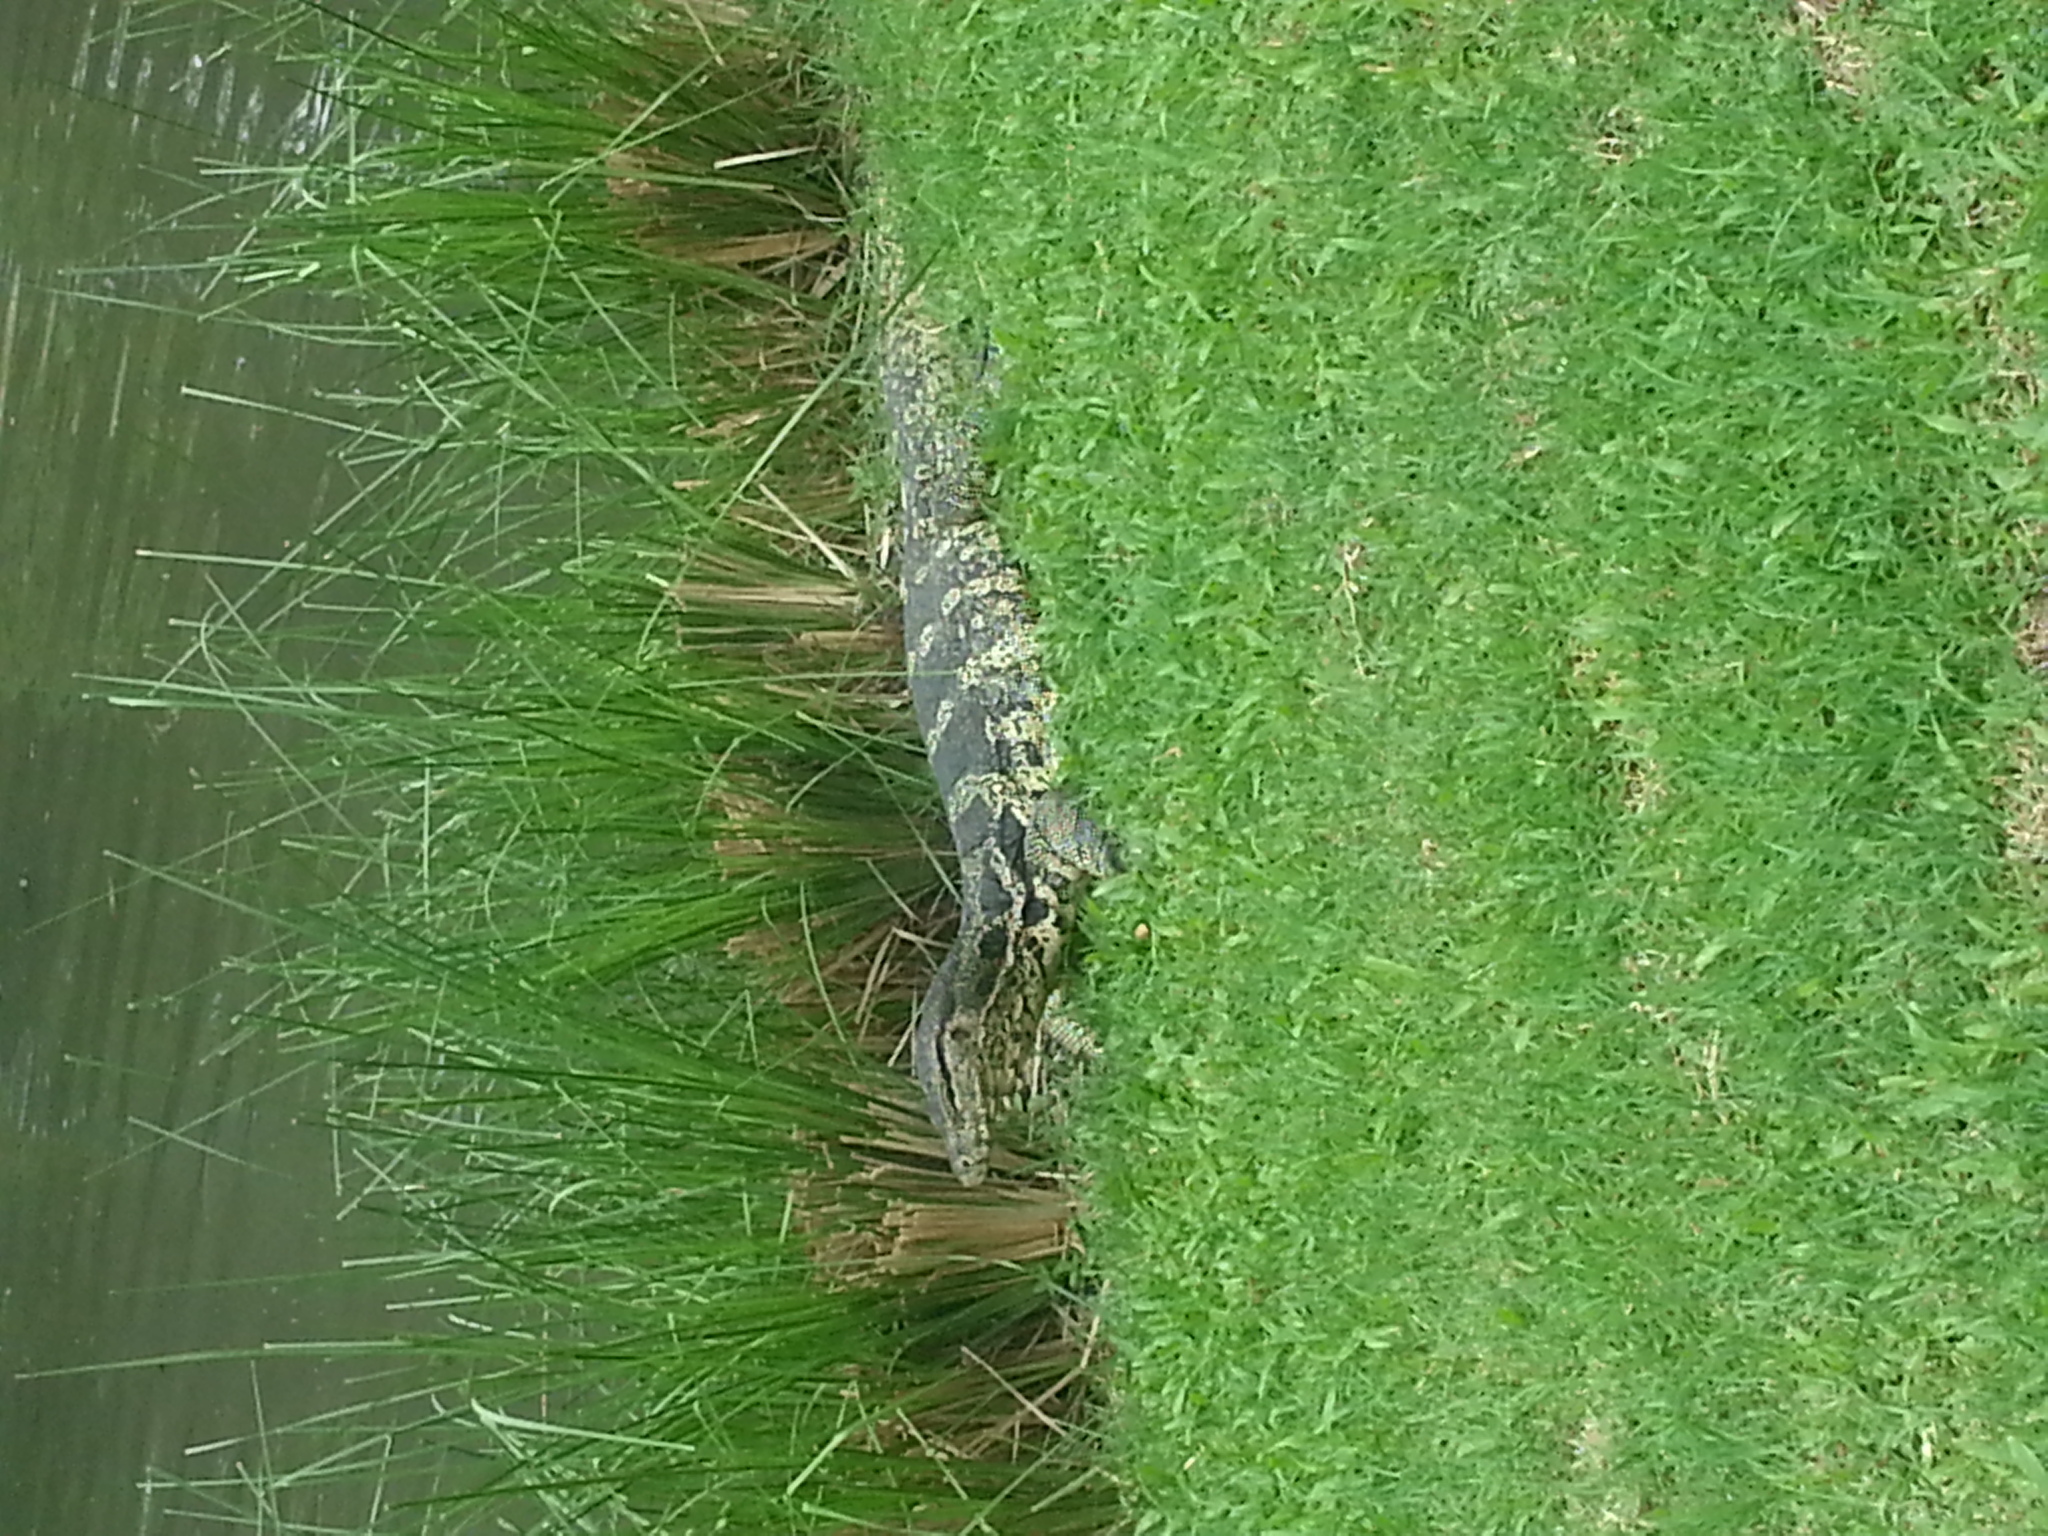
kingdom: Animalia
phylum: Chordata
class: Squamata
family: Varanidae
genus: Varanus
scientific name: Varanus salvator
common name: Common water monitor
